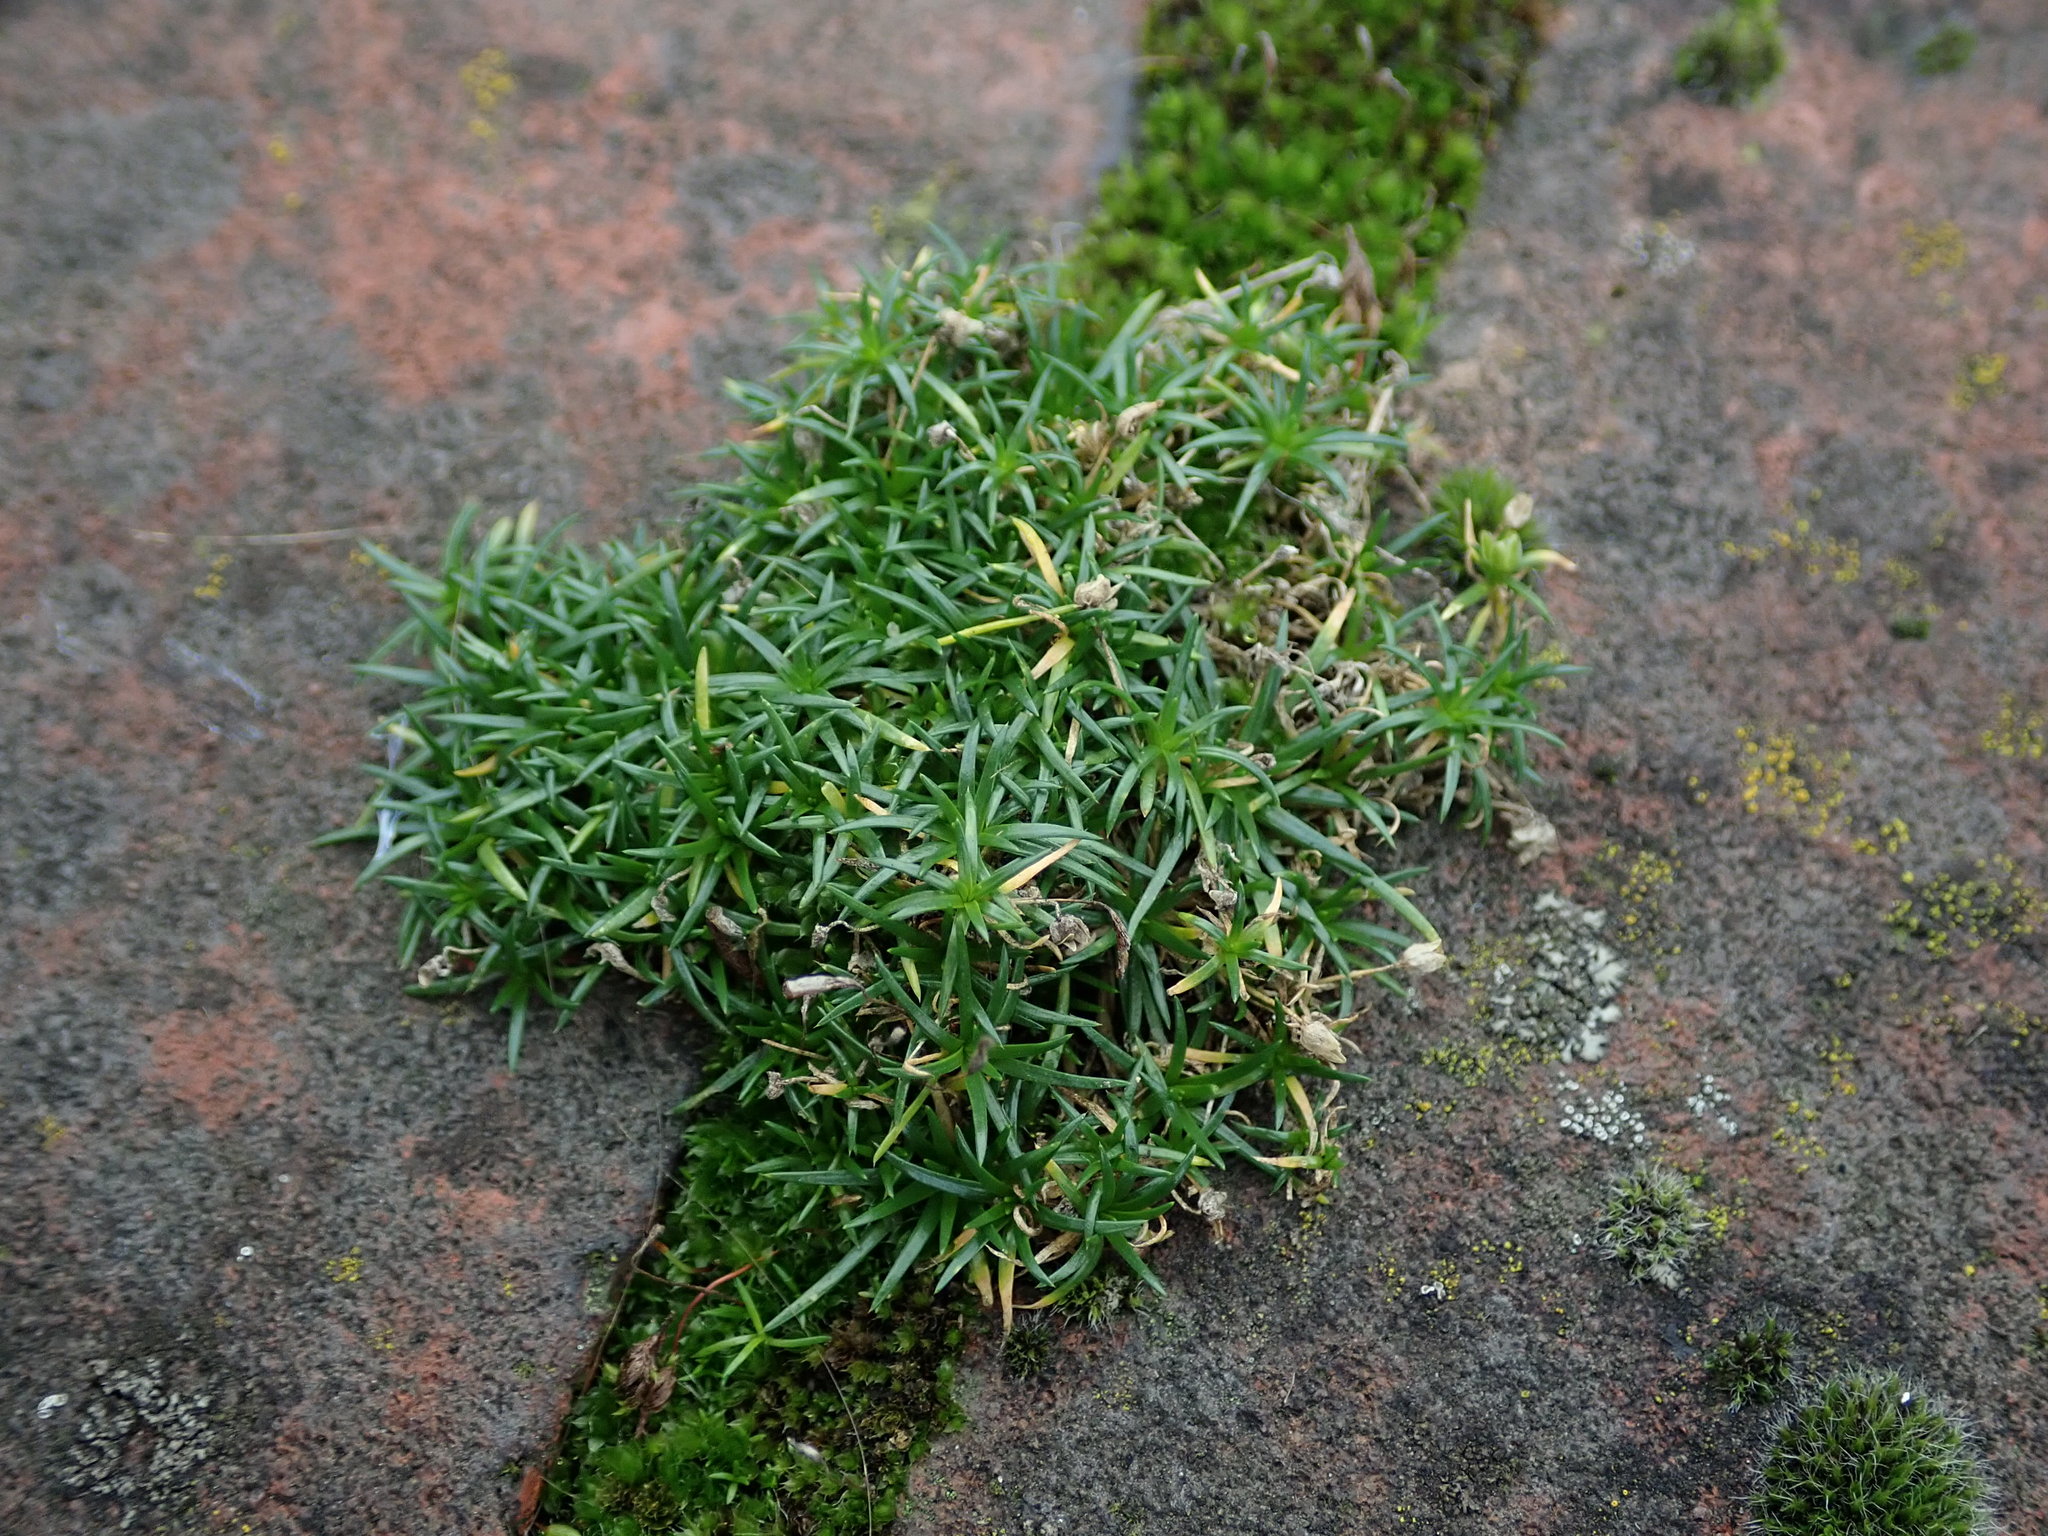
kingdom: Plantae
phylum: Tracheophyta
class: Magnoliopsida
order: Caryophyllales
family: Caryophyllaceae
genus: Sagina
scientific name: Sagina procumbens
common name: Procumbent pearlwort
